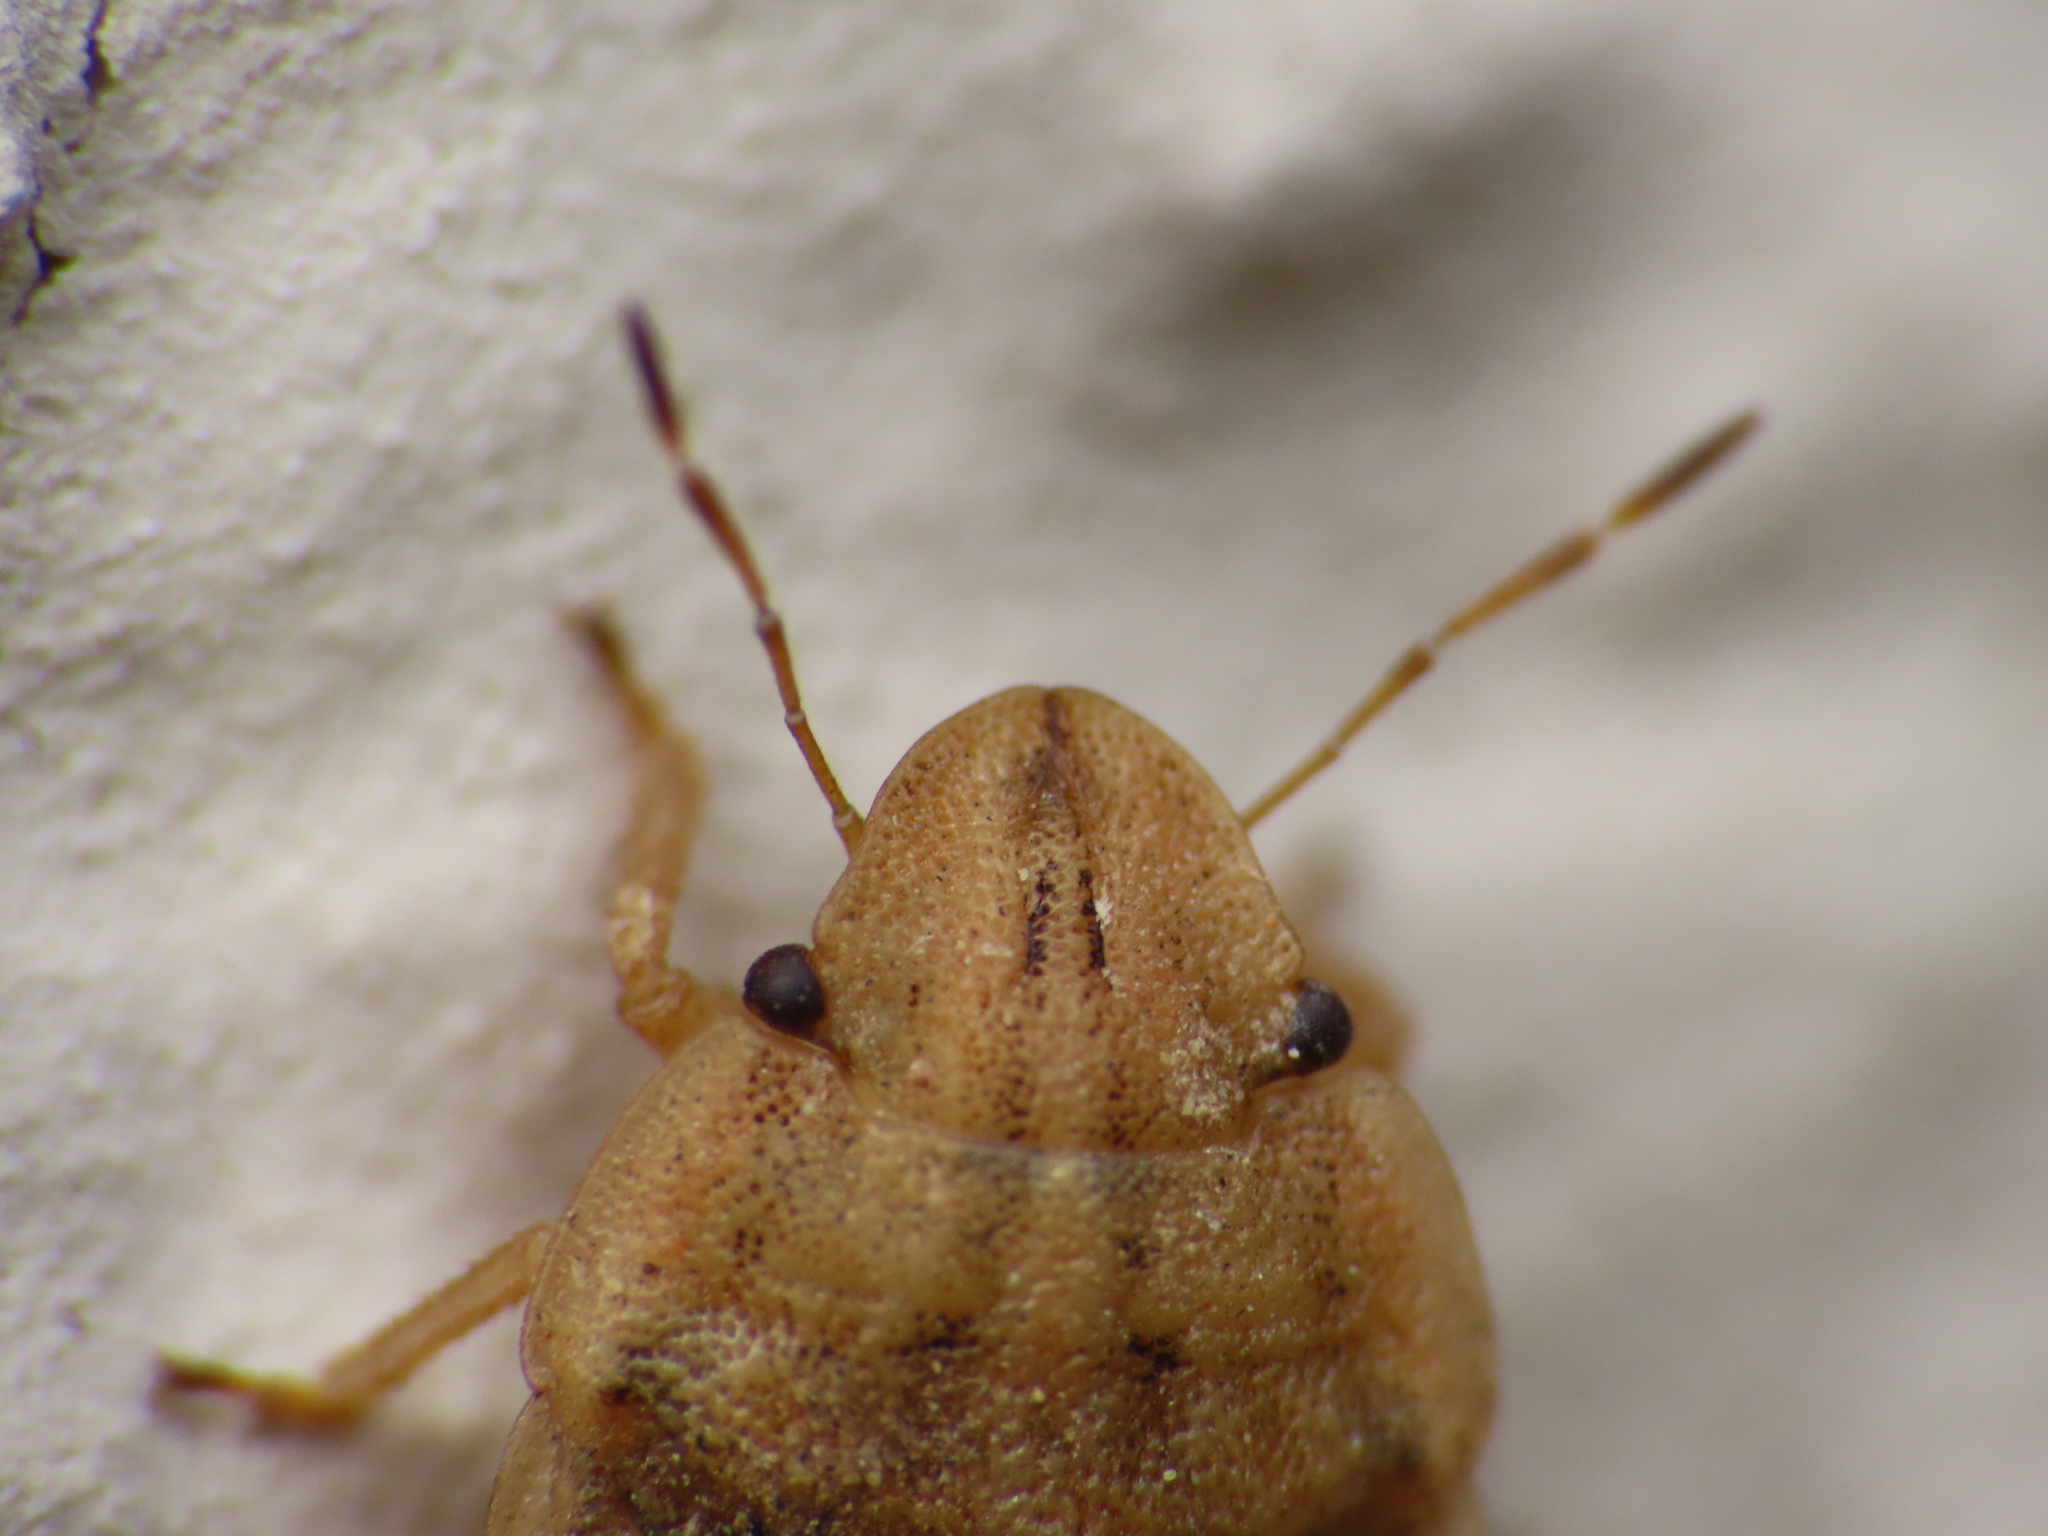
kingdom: Animalia
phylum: Arthropoda
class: Insecta
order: Hemiptera
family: Pentatomidae
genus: Sciocoris
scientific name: Sciocoris sulcatus
